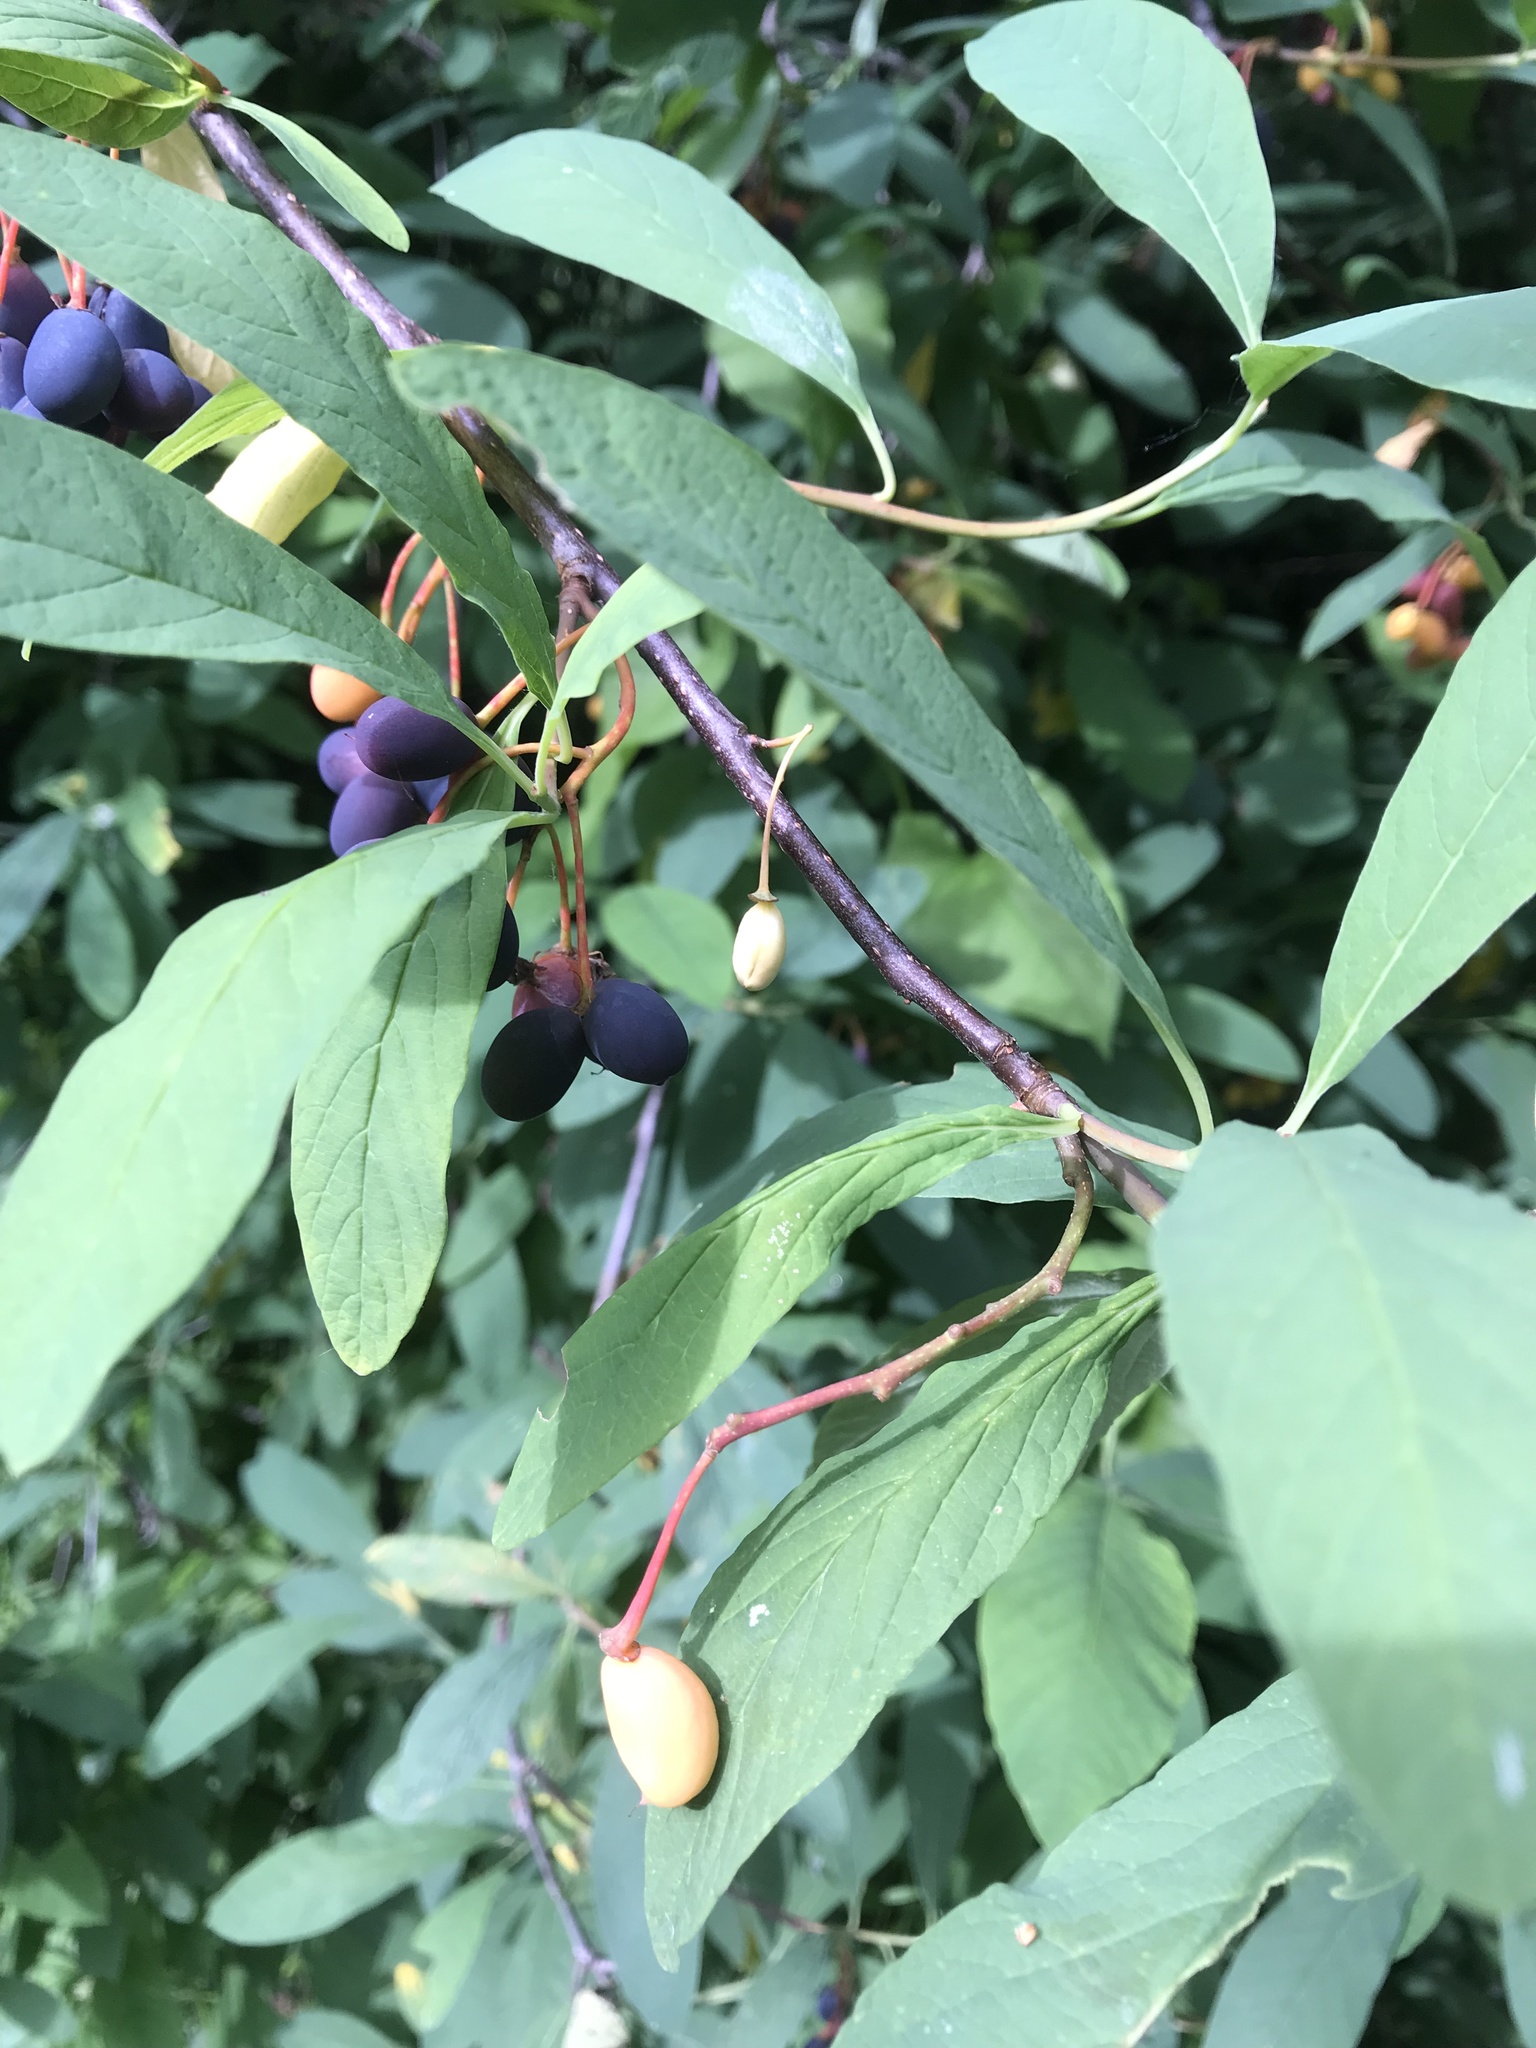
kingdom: Plantae
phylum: Tracheophyta
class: Magnoliopsida
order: Rosales
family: Rosaceae
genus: Oemleria
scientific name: Oemleria cerasiformis
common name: Osoberry
